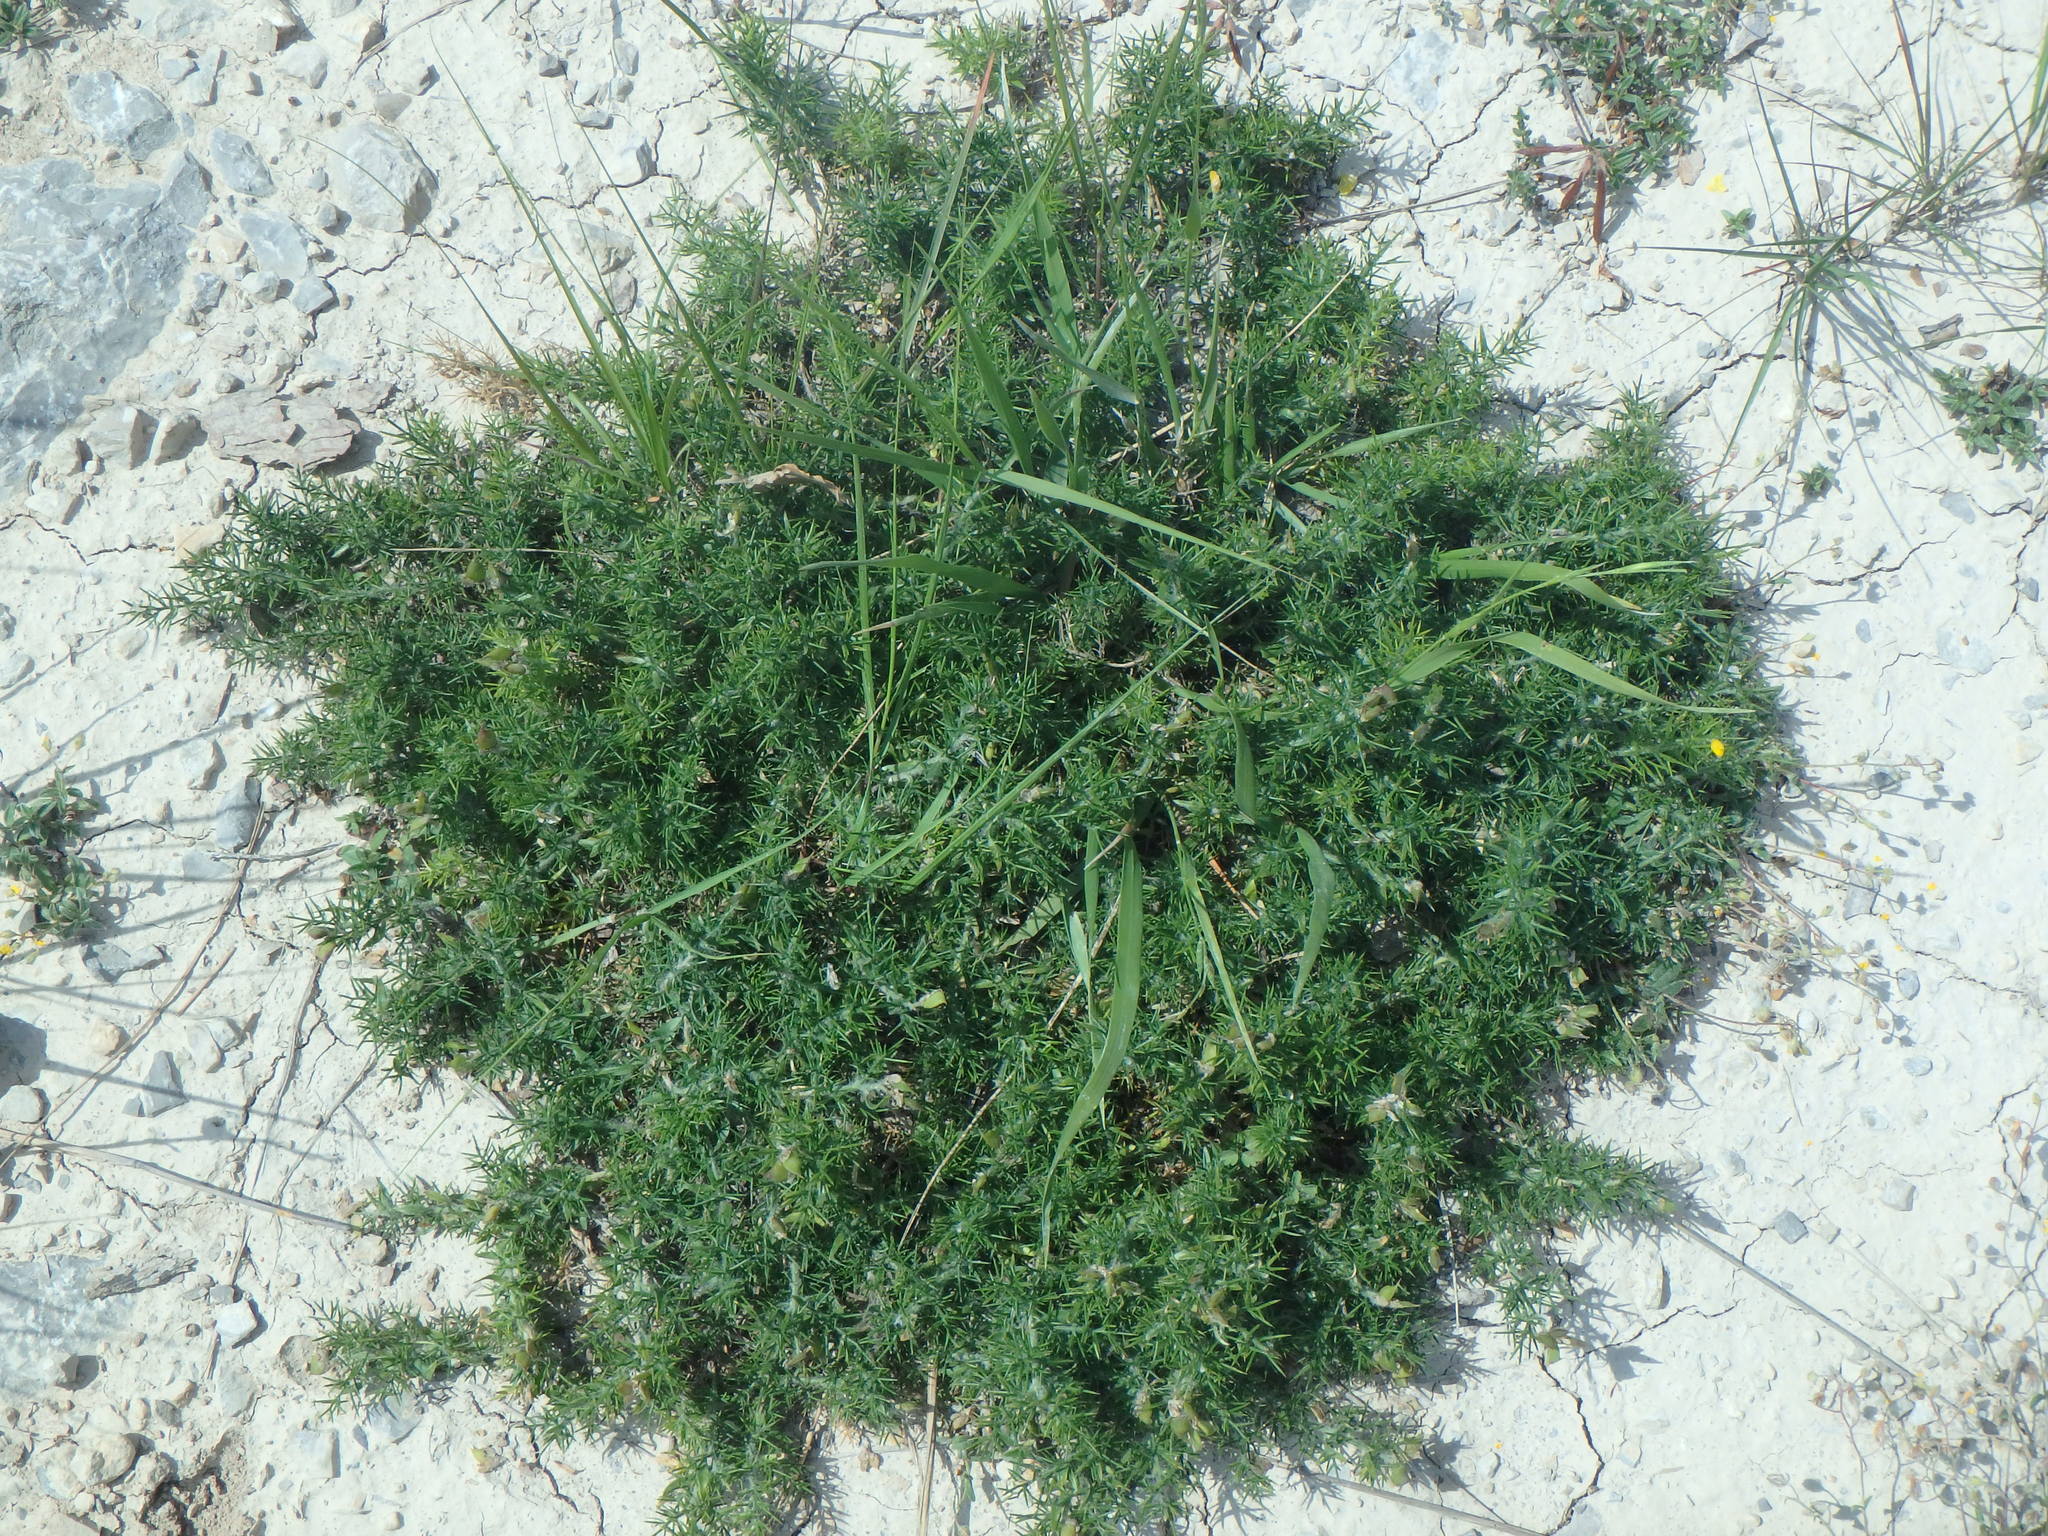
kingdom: Plantae
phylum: Tracheophyta
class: Magnoliopsida
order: Fabales
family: Fabaceae
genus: Genista
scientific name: Genista hispanica
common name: Spanish gorse
